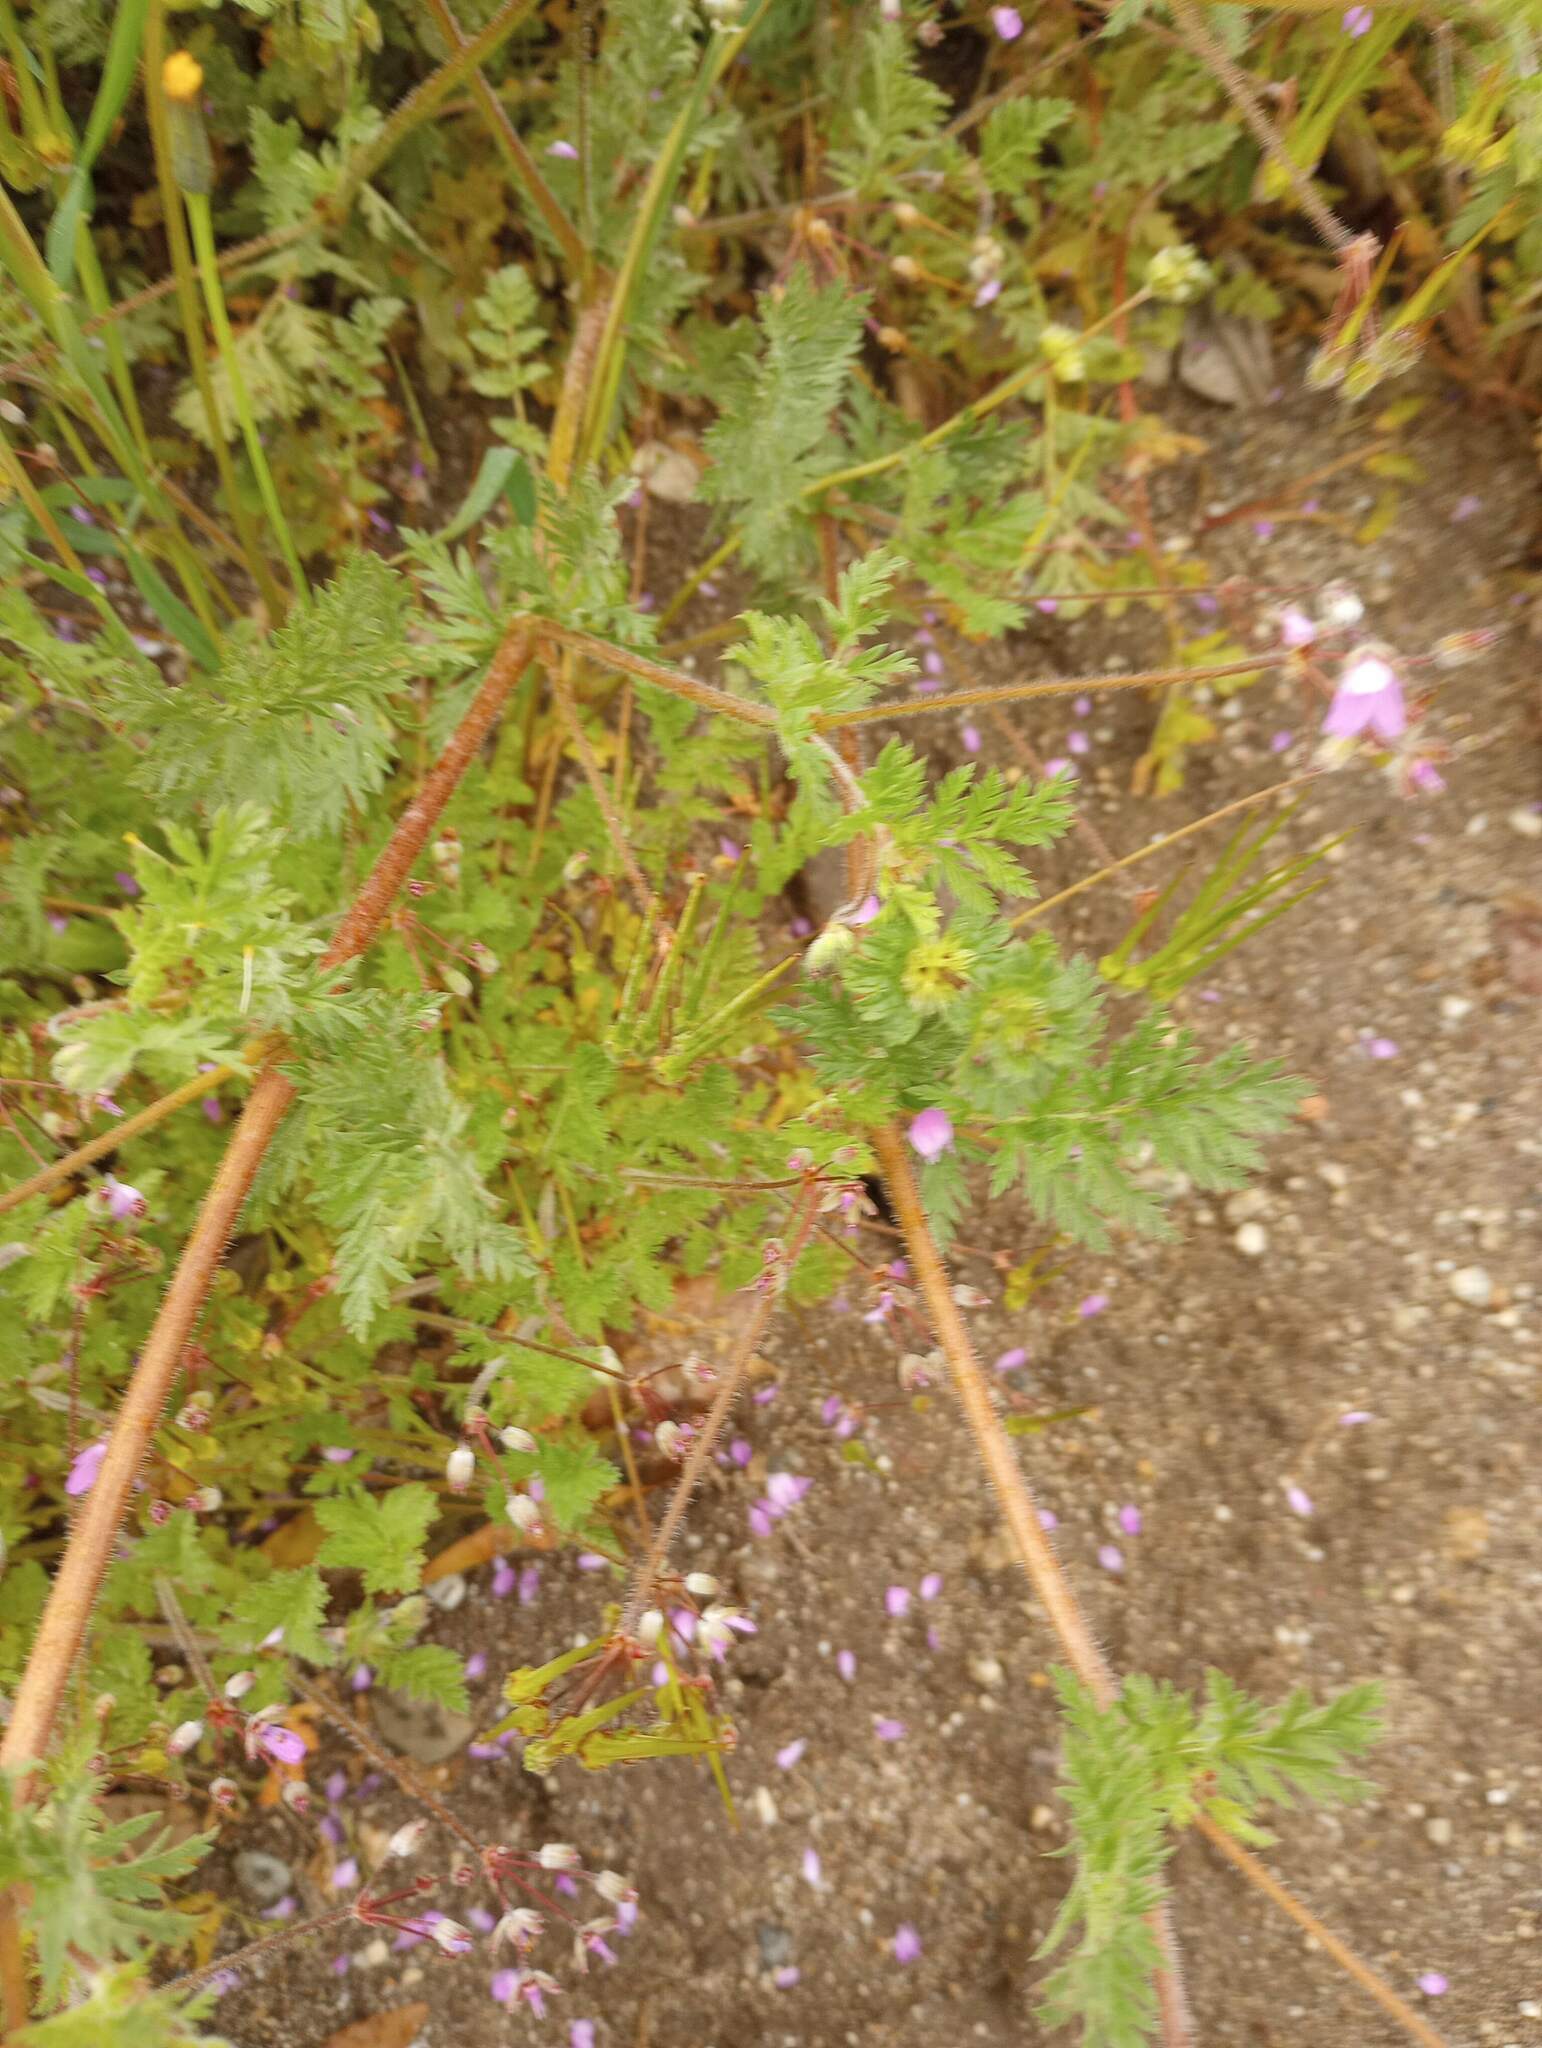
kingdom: Plantae
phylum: Tracheophyta
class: Magnoliopsida
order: Geraniales
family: Geraniaceae
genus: Erodium
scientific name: Erodium cicutarium
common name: Common stork's-bill
